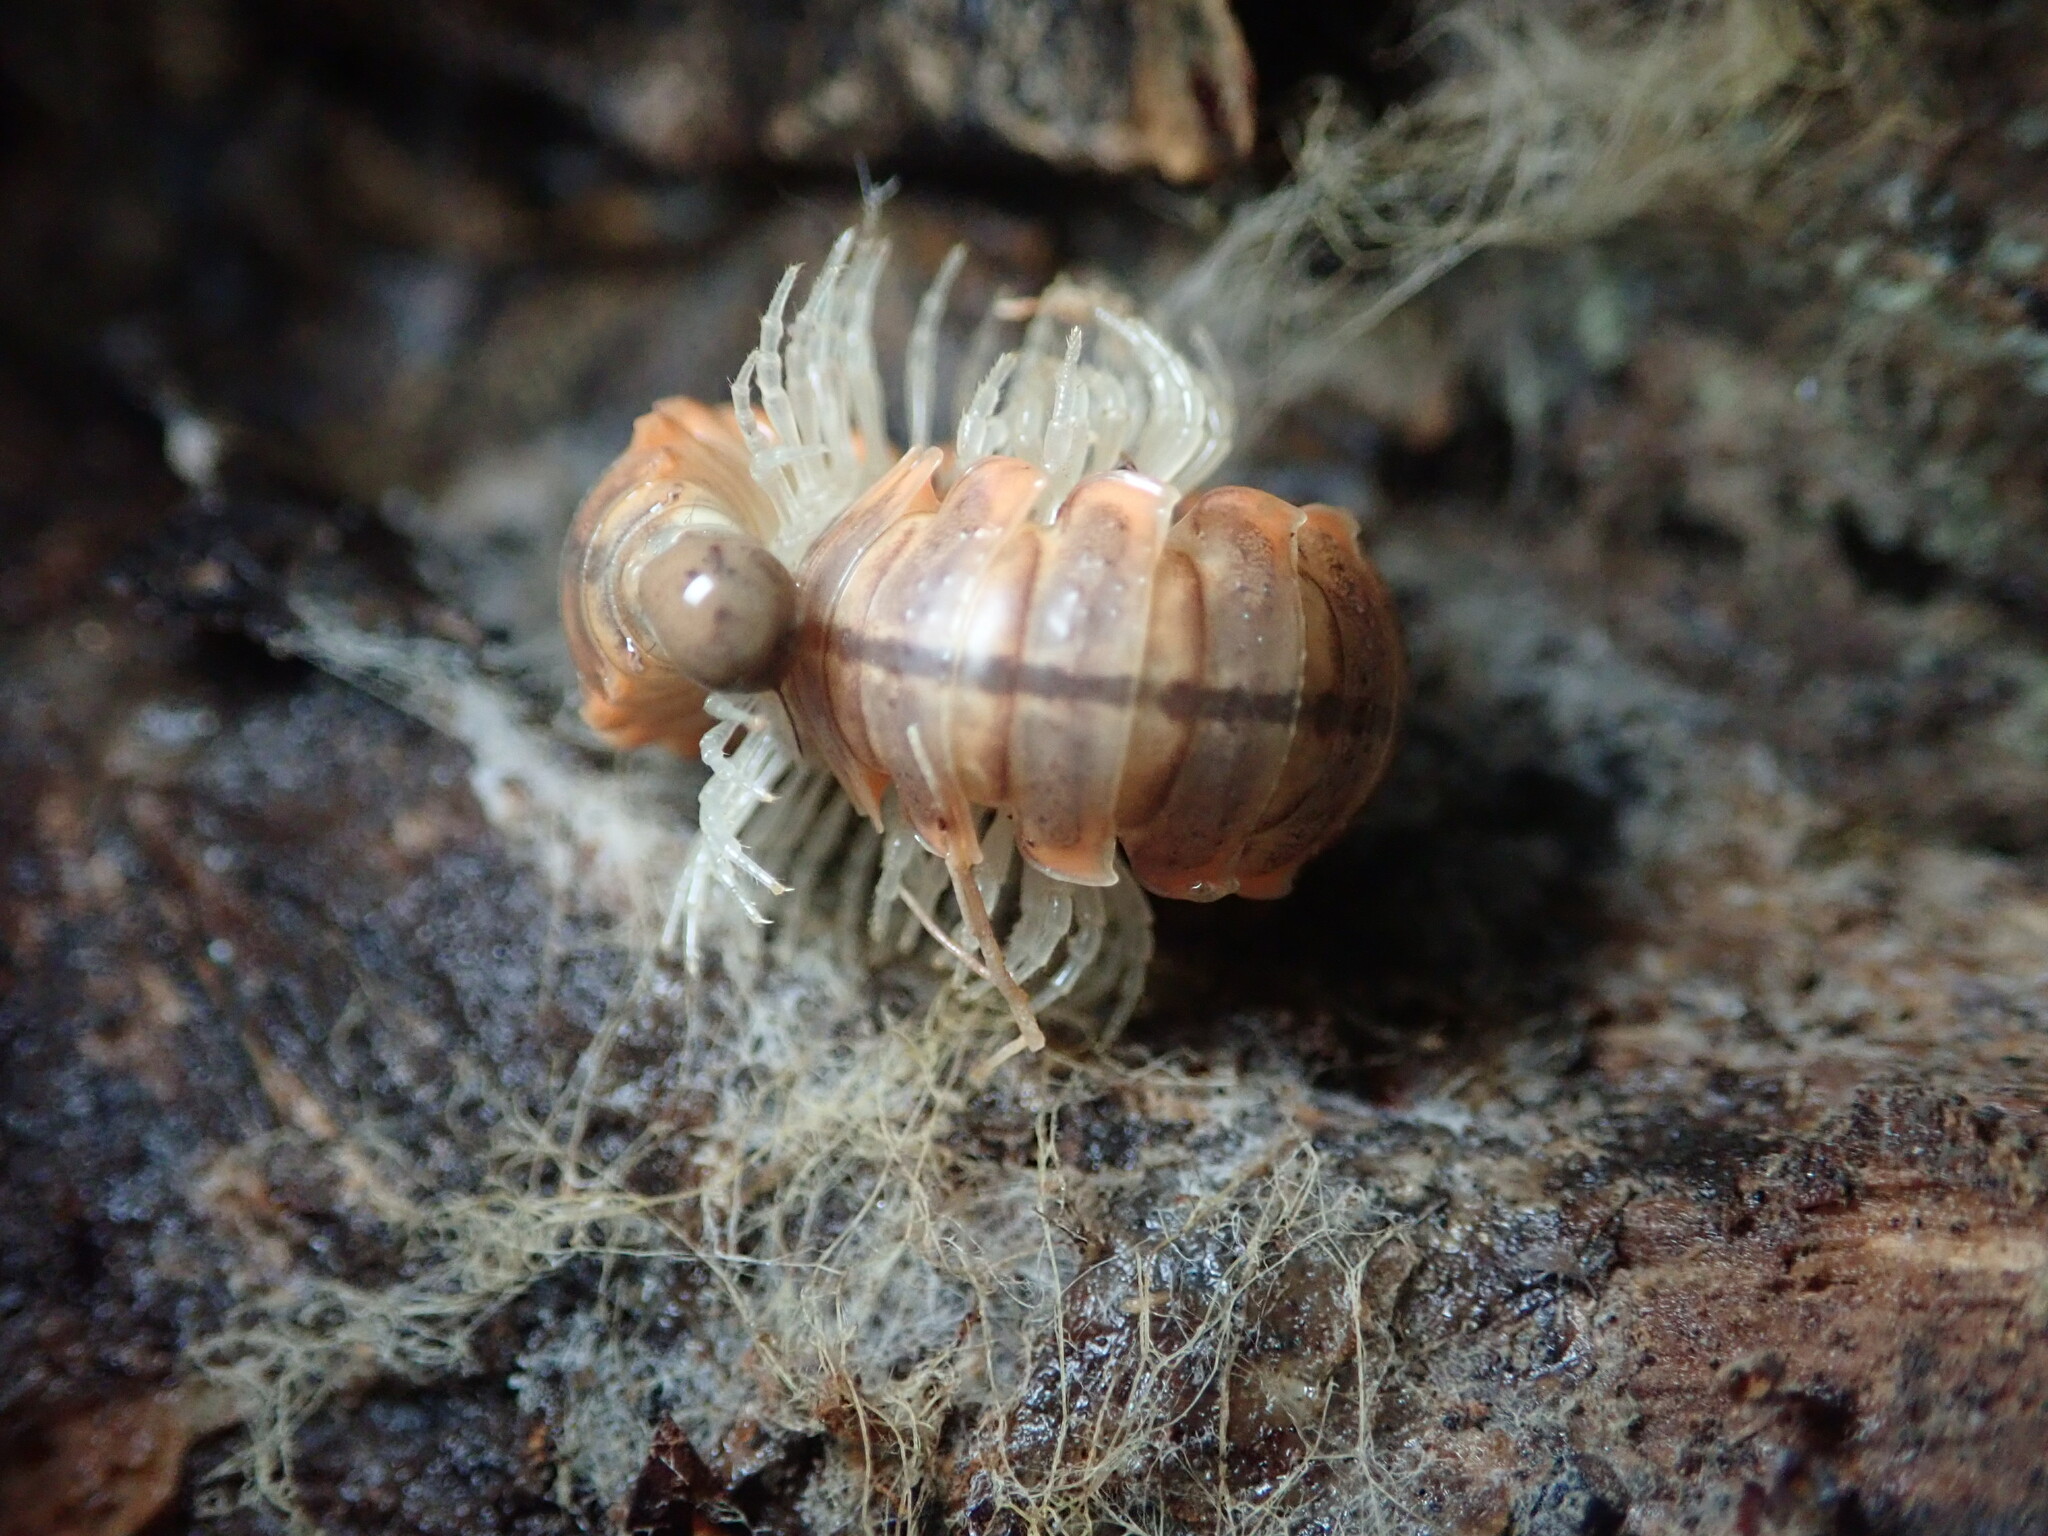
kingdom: Animalia
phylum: Arthropoda
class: Diplopoda
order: Polydesmida
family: Xystodesmidae
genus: Xystocheir
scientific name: Xystocheir dissecta
